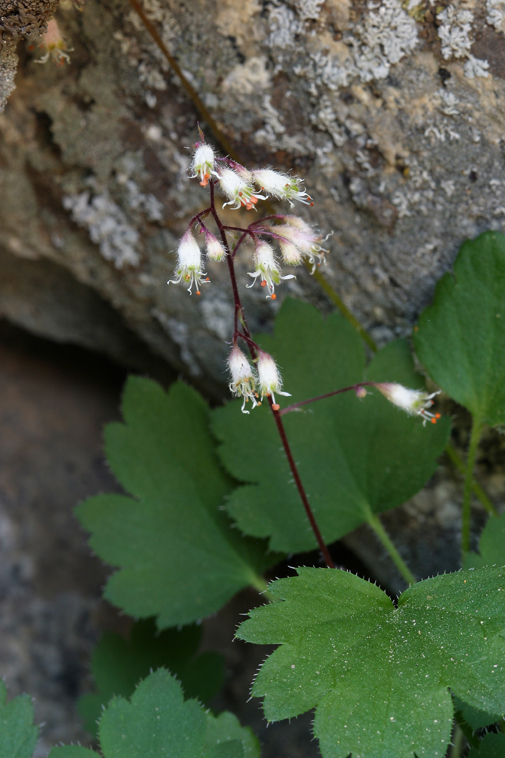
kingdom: Plantae
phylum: Tracheophyta
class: Magnoliopsida
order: Saxifragales
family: Saxifragaceae
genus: Heuchera
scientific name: Heuchera rubescens
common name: Jack-o'the-rocks
